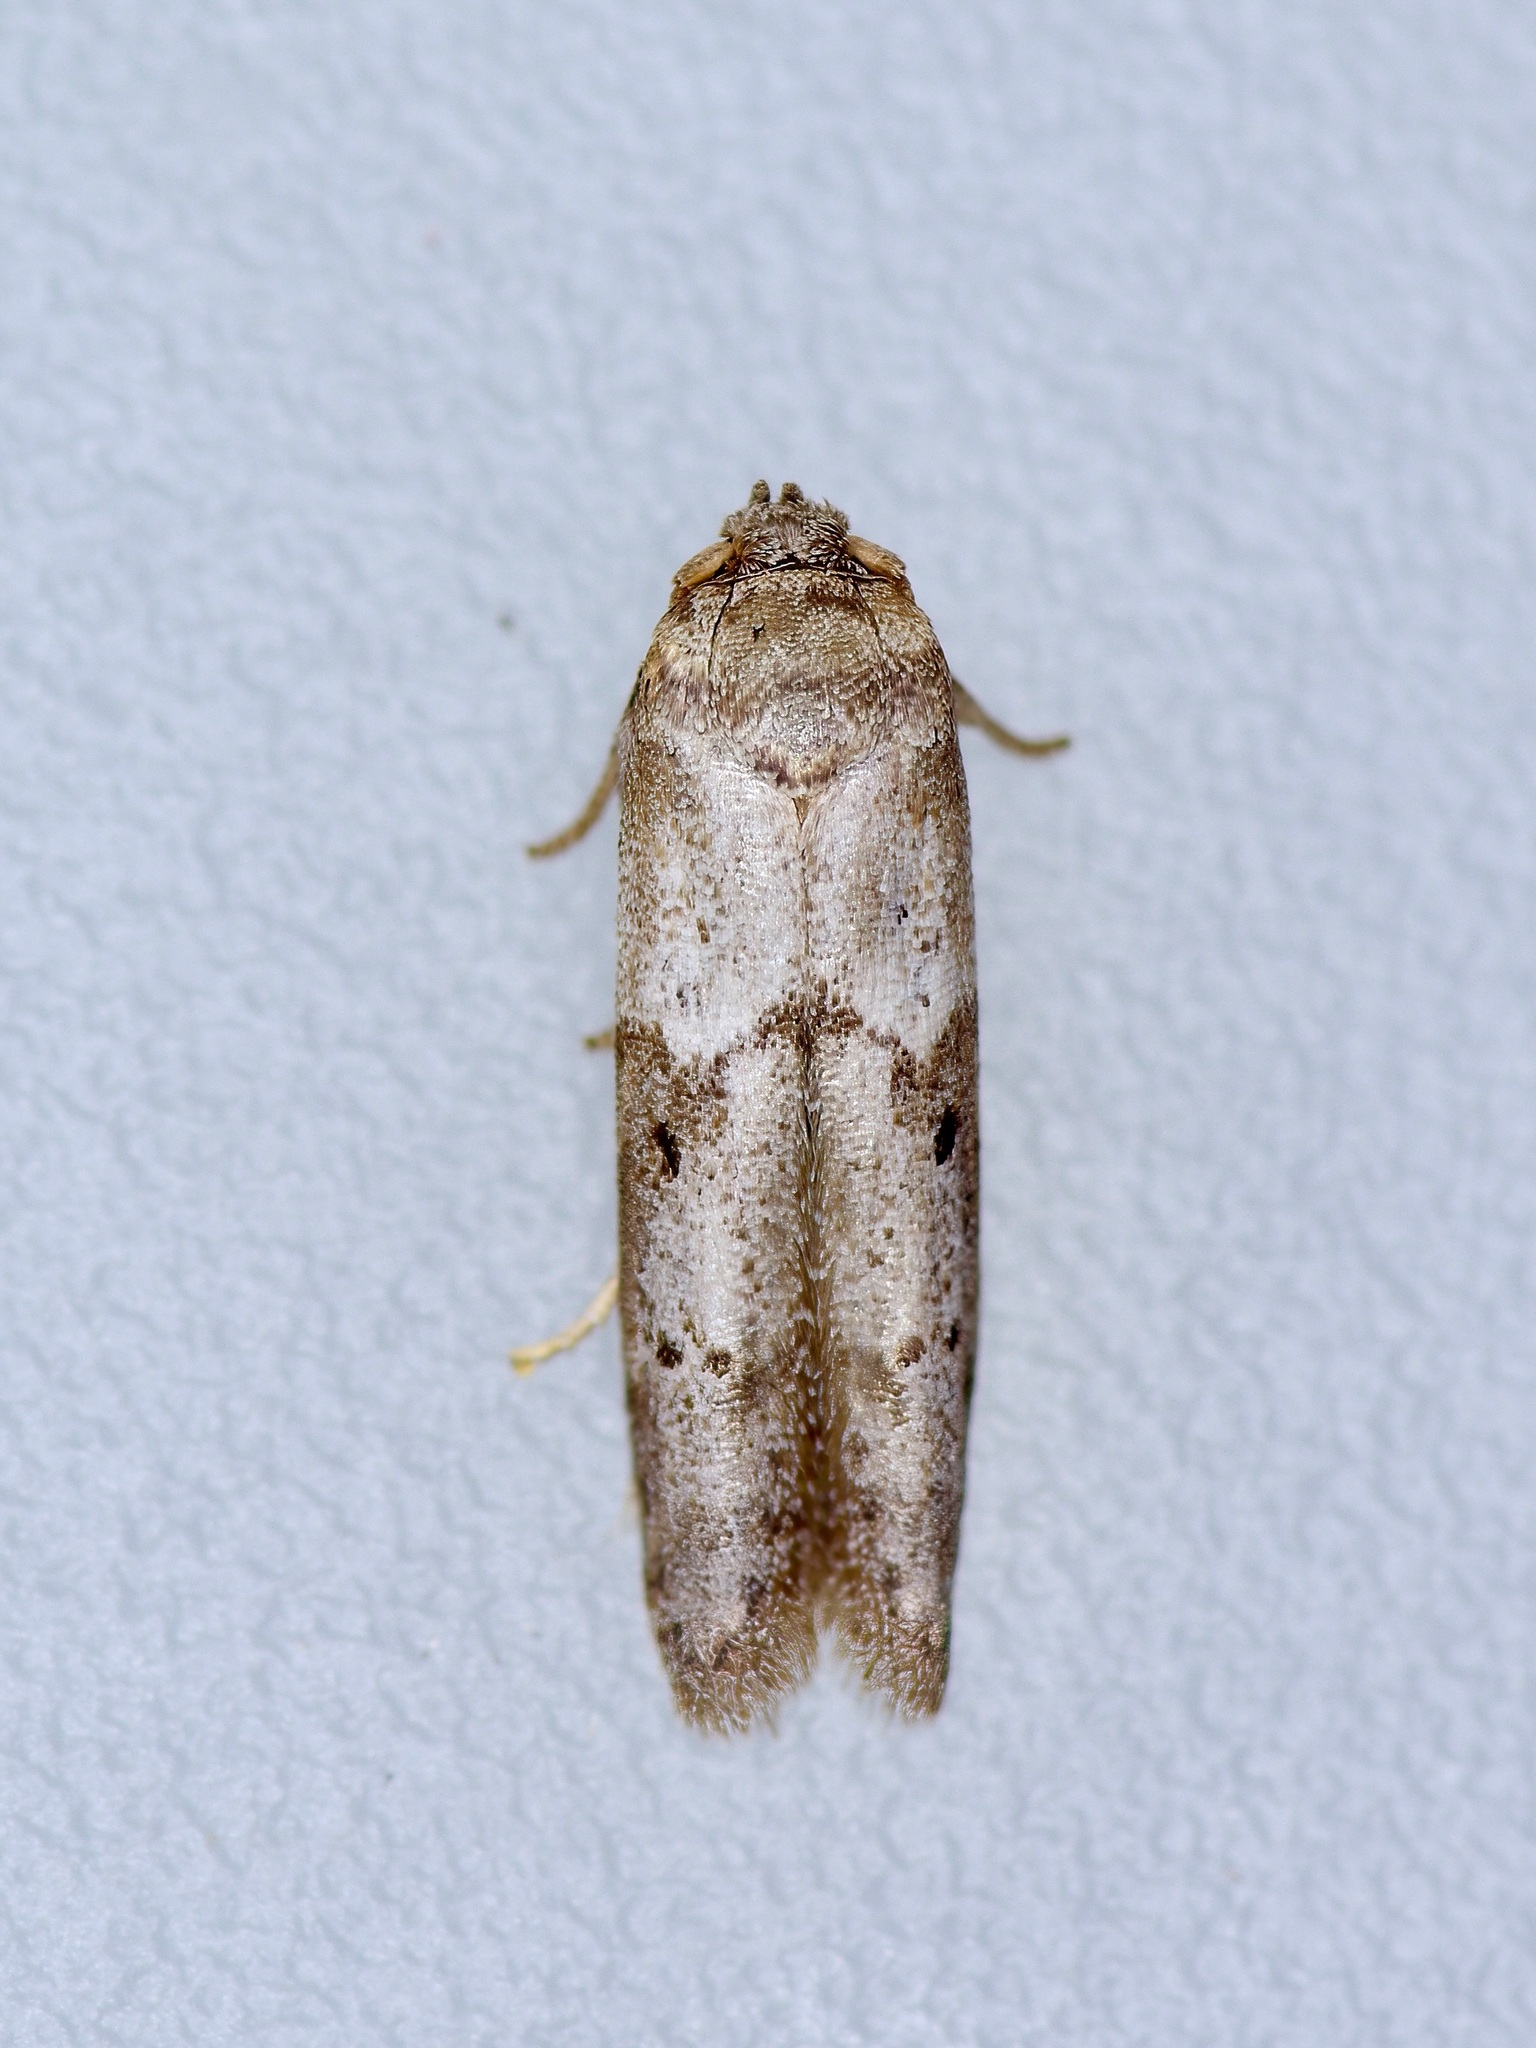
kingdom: Animalia
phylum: Arthropoda
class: Insecta
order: Lepidoptera
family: Blastobasidae
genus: Blastobasis
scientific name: Blastobasis glandulella
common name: Acorn moth
